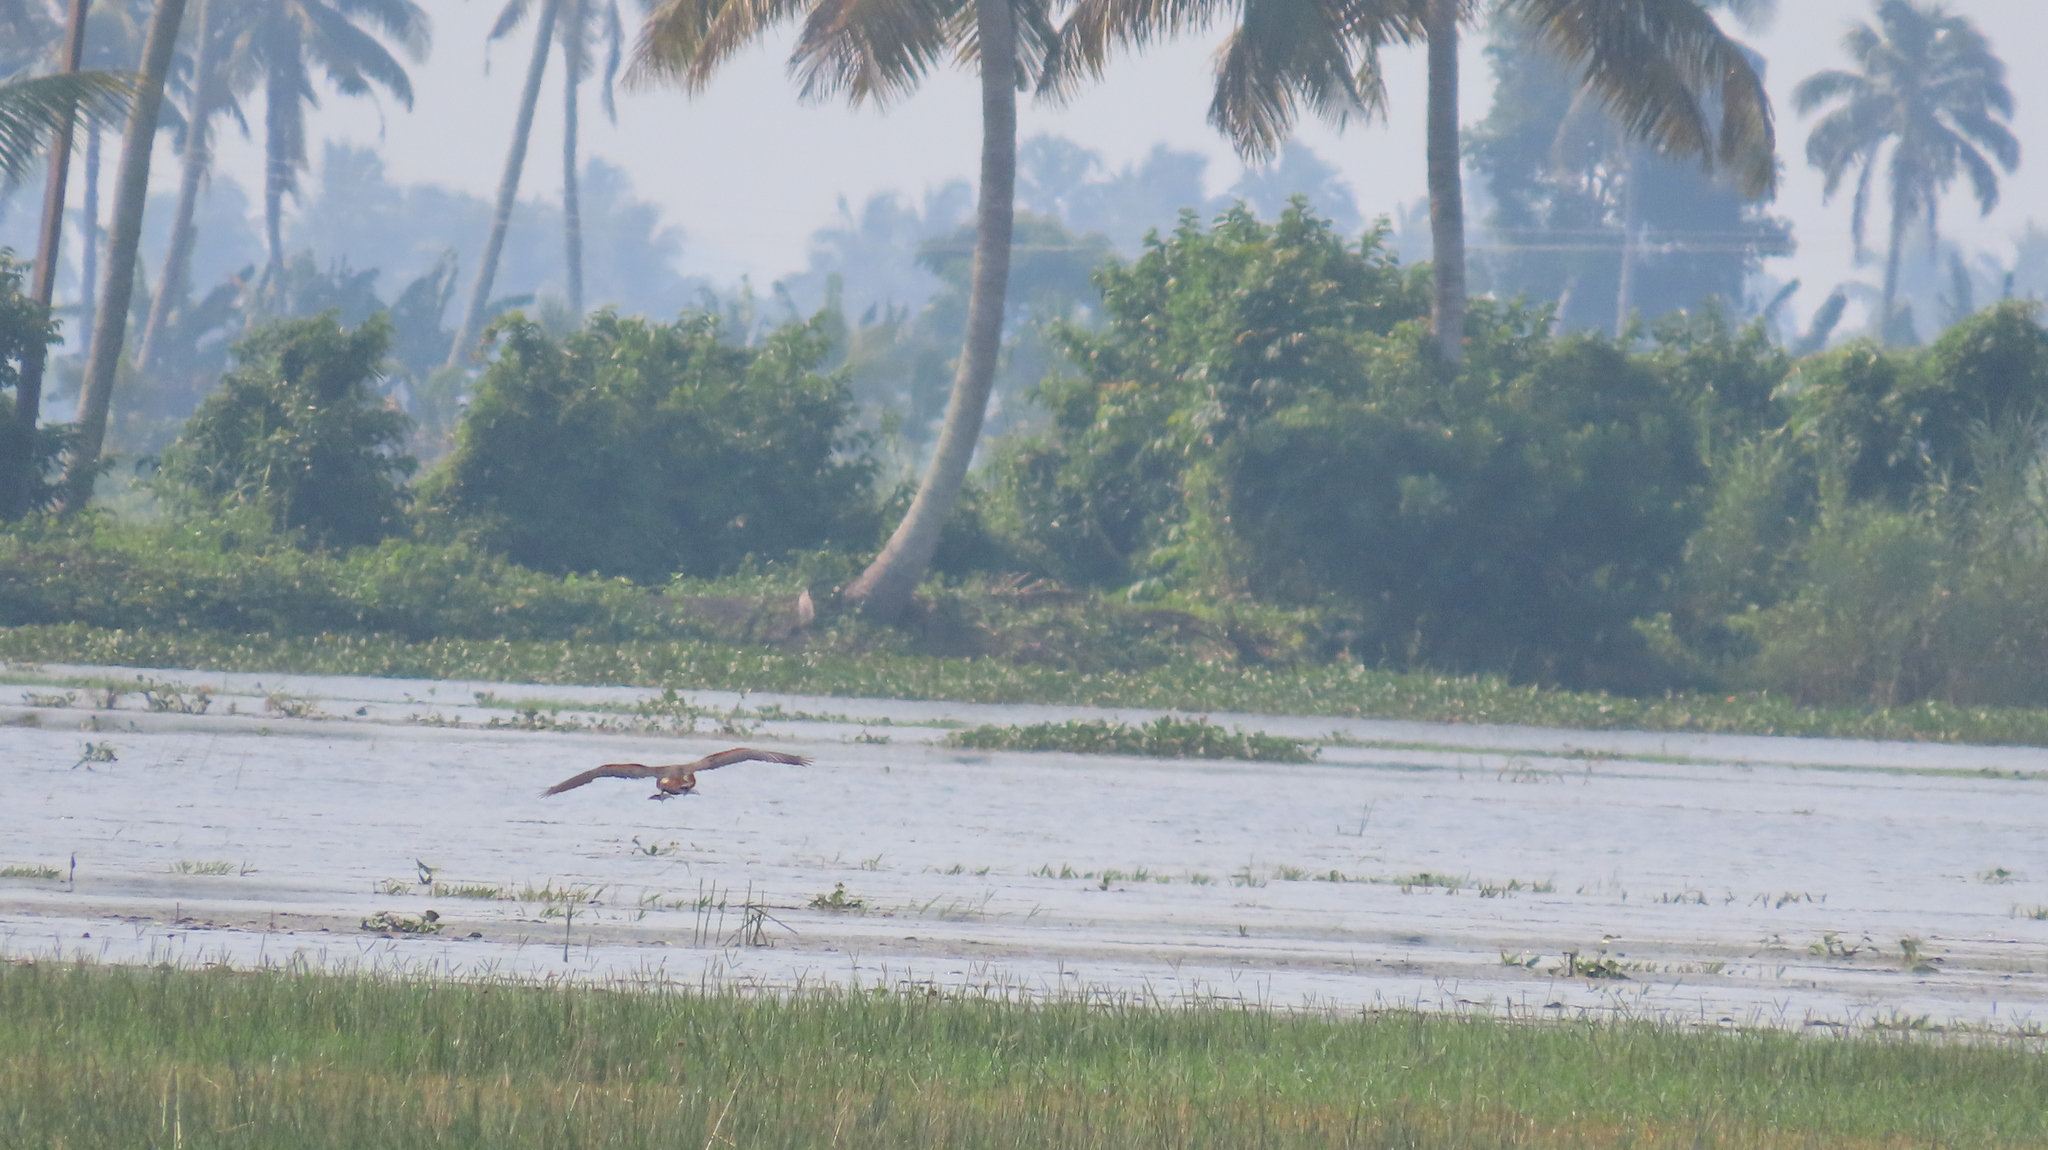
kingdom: Animalia
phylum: Chordata
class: Aves
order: Anseriformes
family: Anatidae
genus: Dendrocygna
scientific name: Dendrocygna javanica
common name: Lesser whistling-duck
